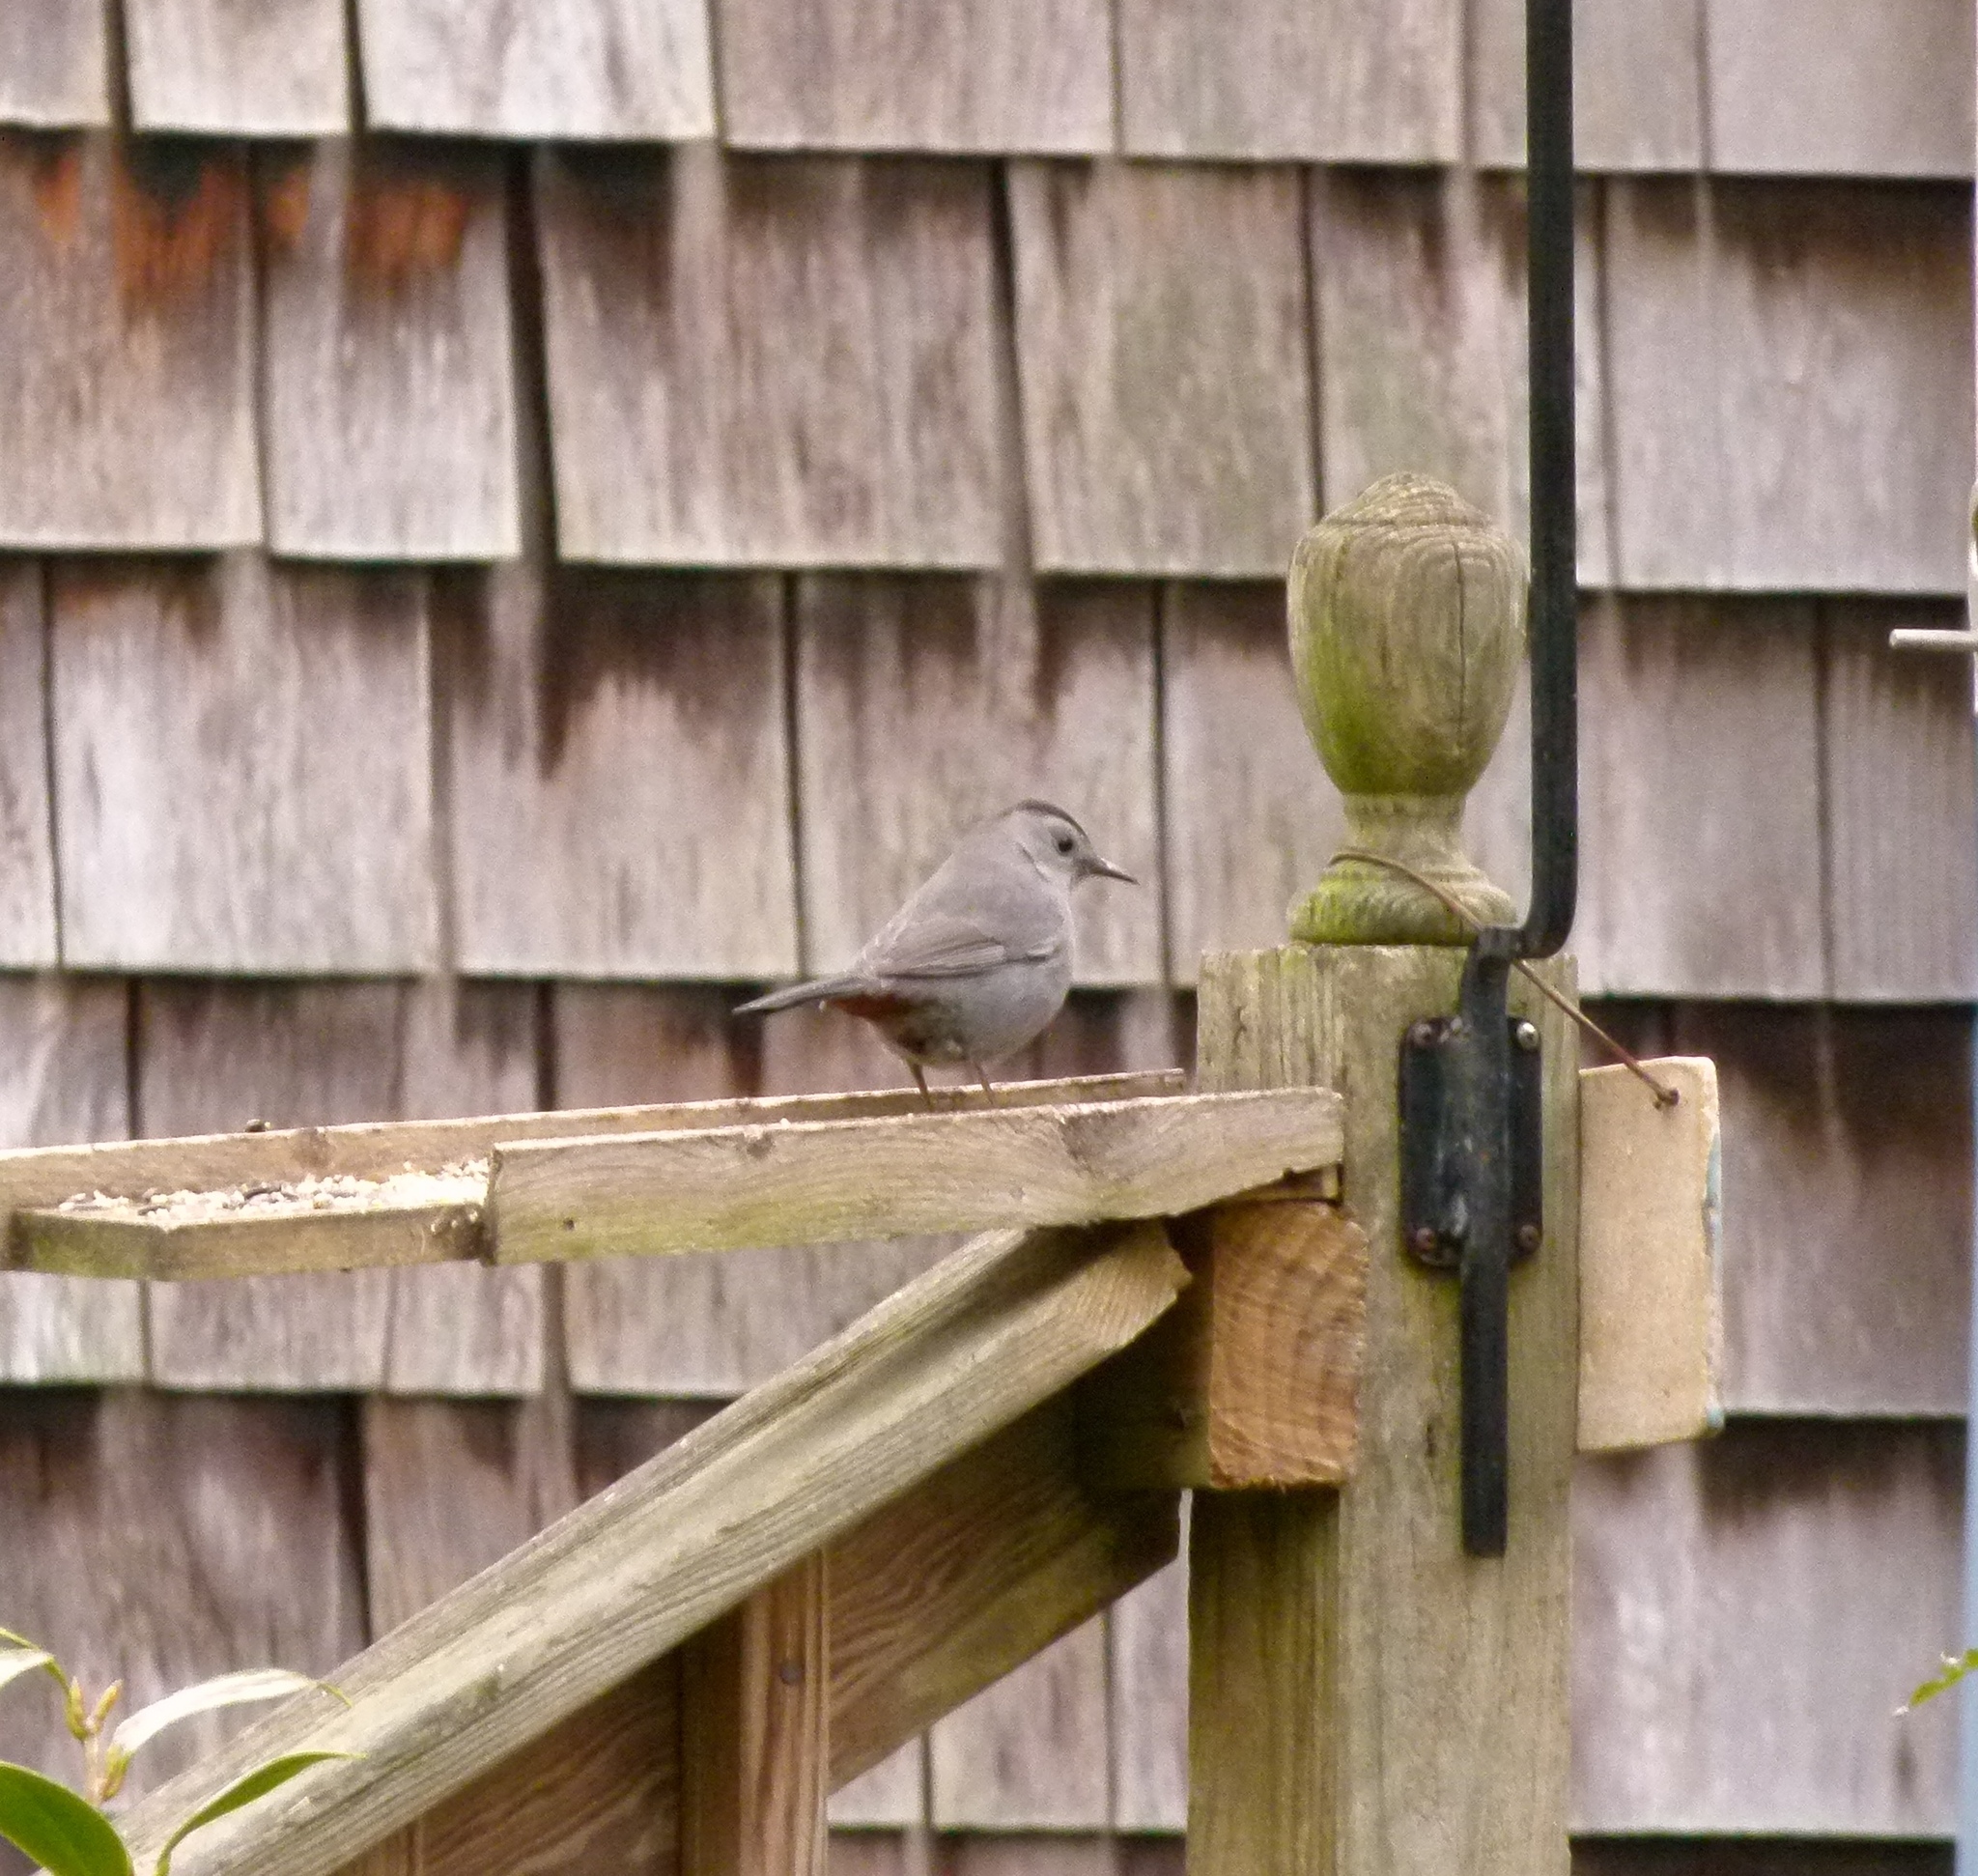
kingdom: Animalia
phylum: Chordata
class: Aves
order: Passeriformes
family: Mimidae
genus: Dumetella
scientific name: Dumetella carolinensis
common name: Gray catbird
